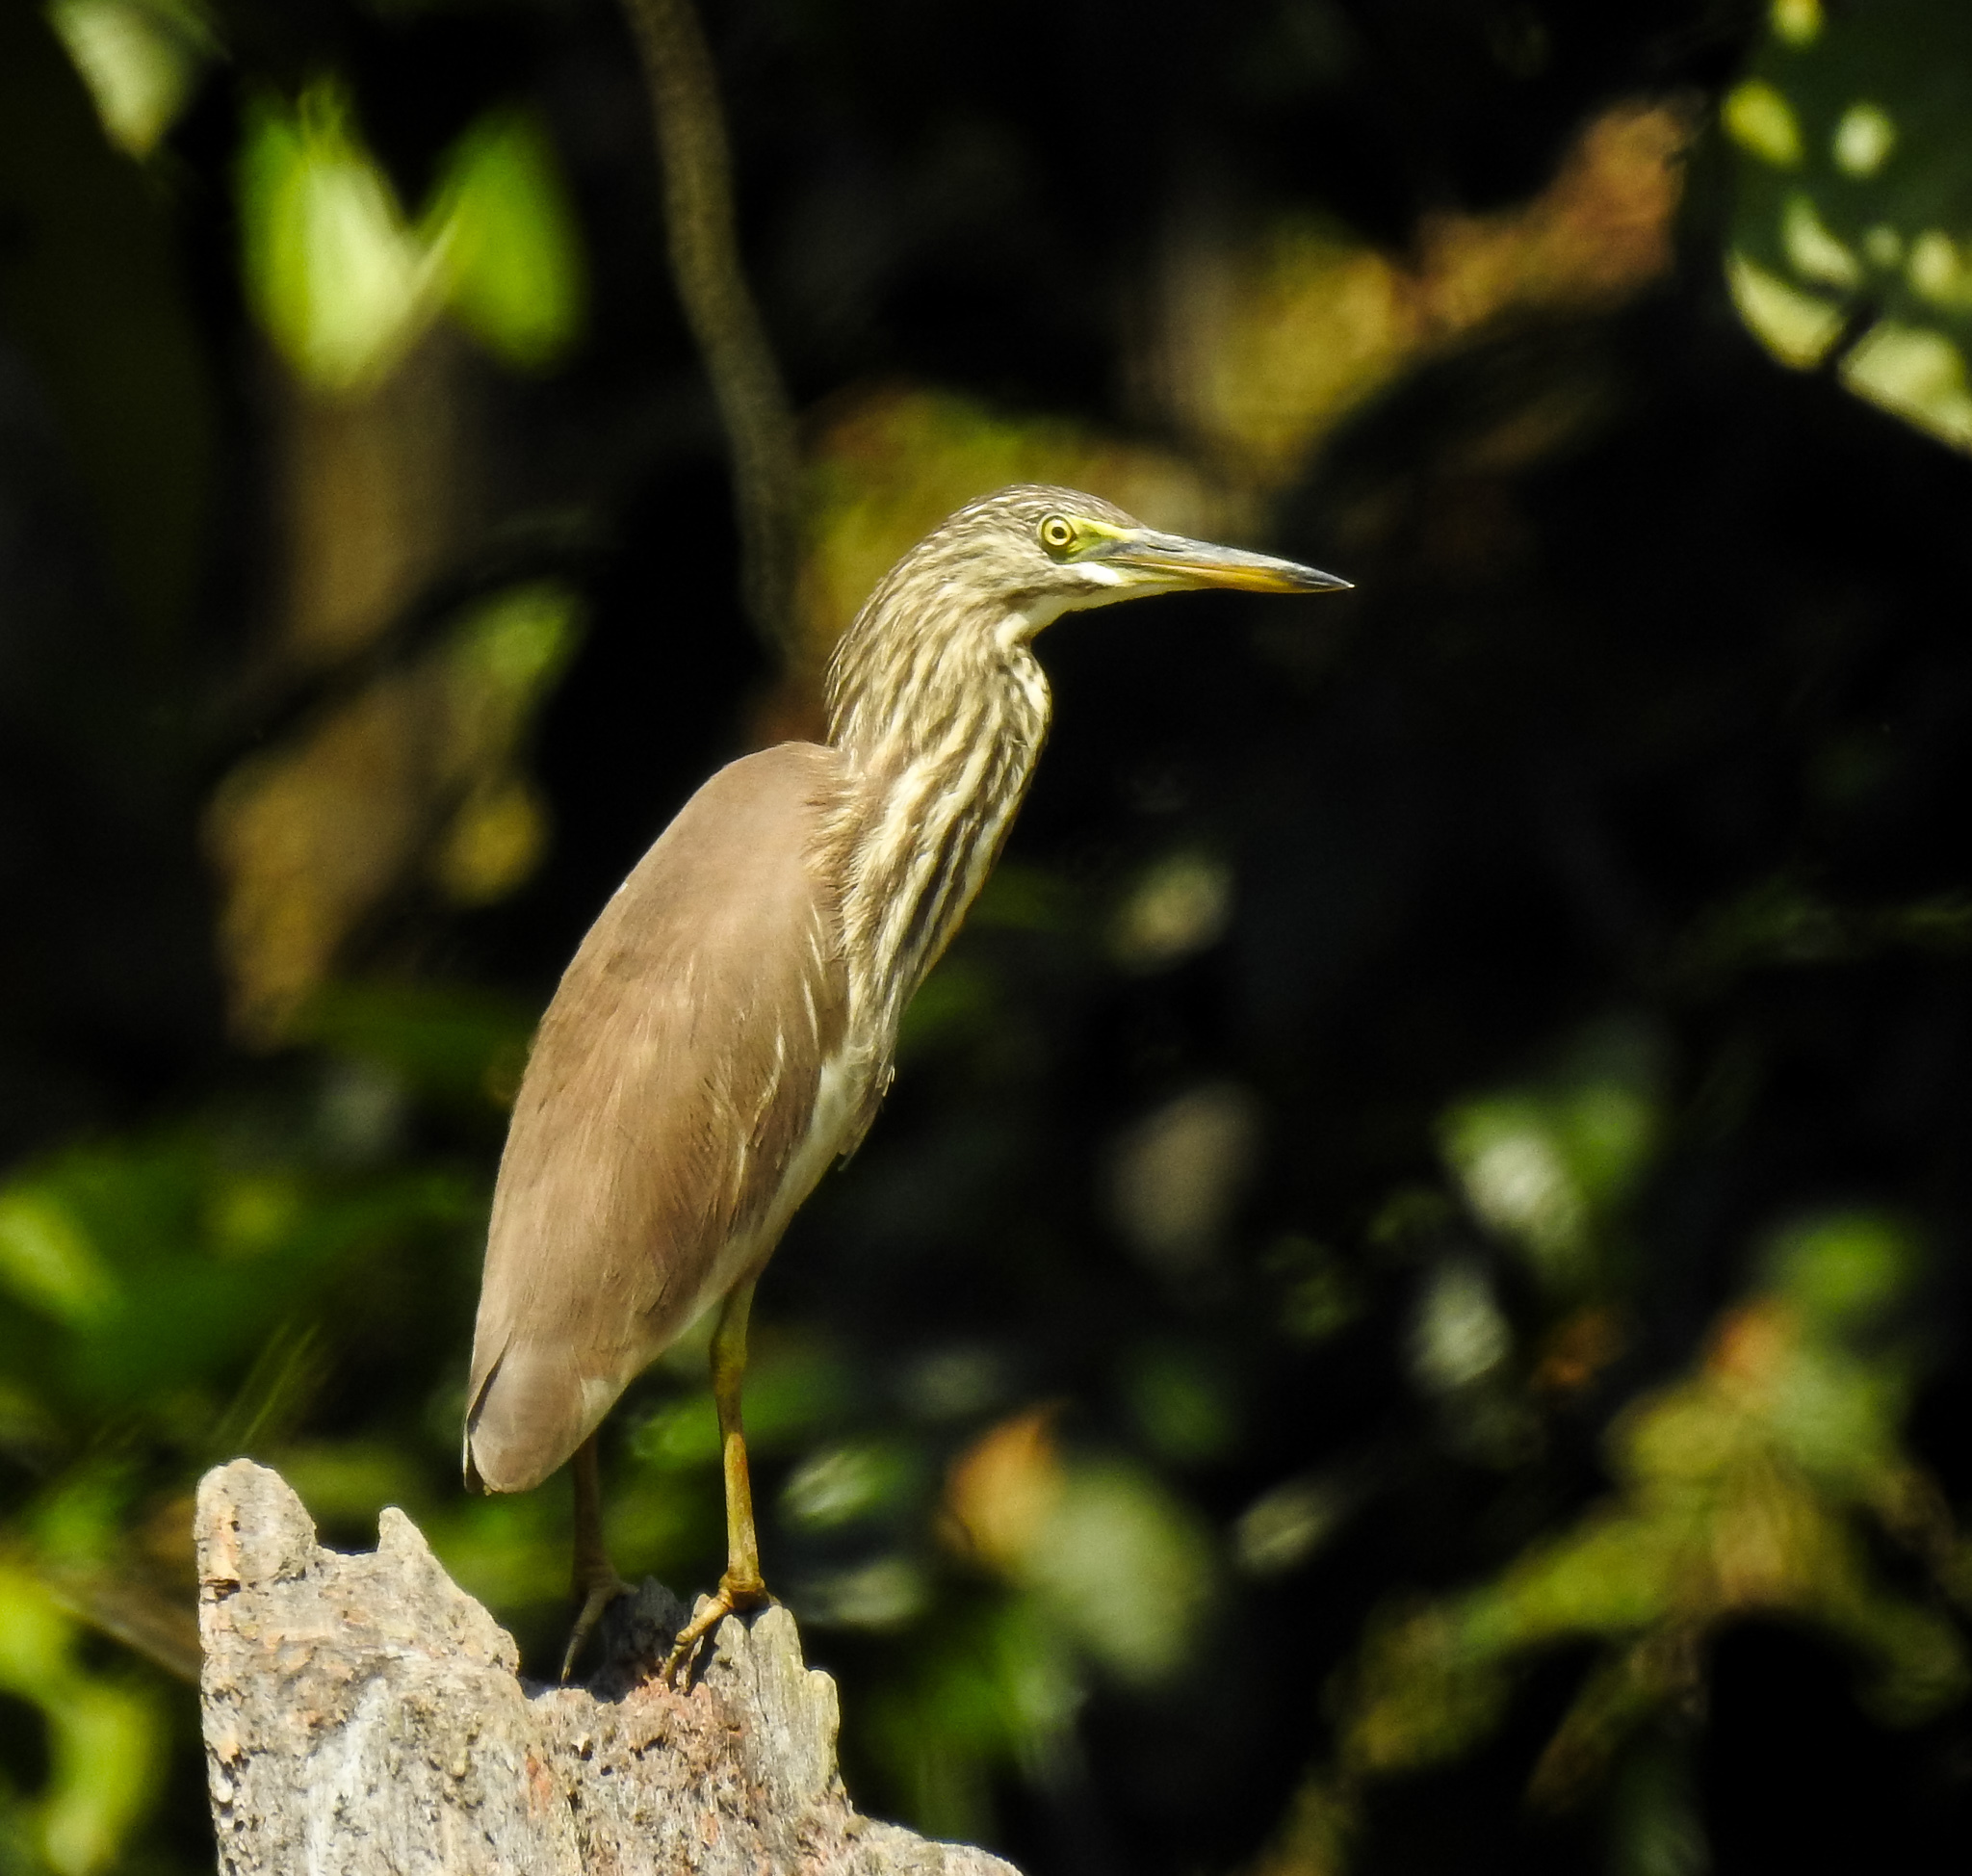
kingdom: Animalia
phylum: Chordata
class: Aves
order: Pelecaniformes
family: Ardeidae
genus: Ardeola
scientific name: Ardeola grayii
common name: Indian pond heron
